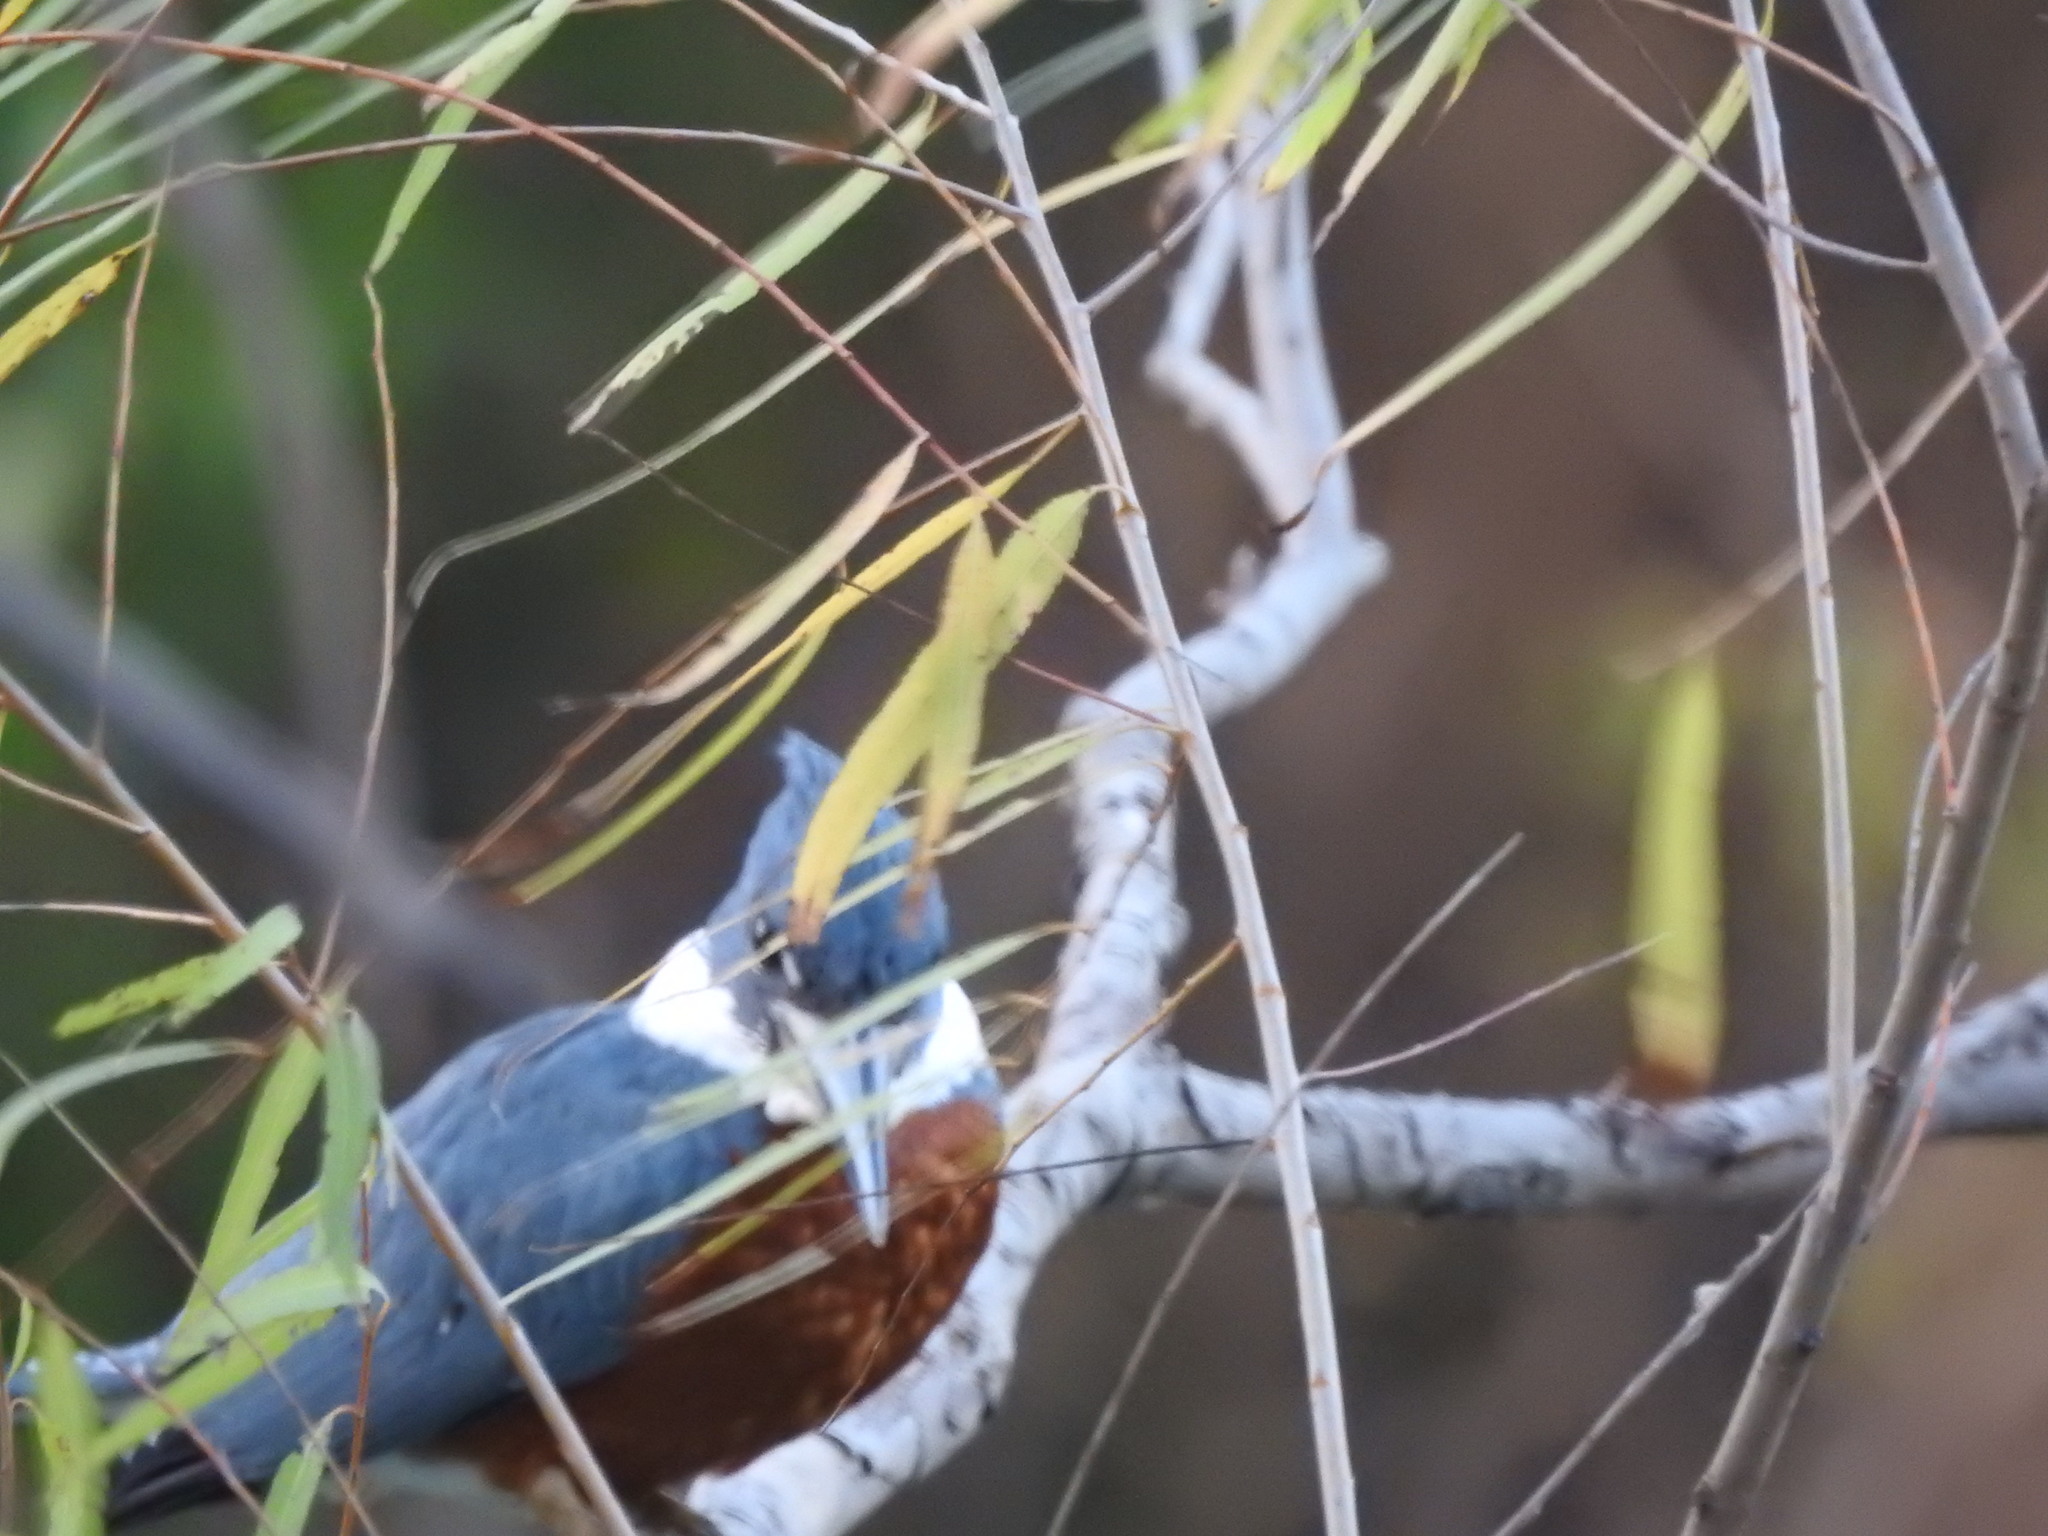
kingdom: Animalia
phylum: Chordata
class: Aves
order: Coraciiformes
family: Alcedinidae
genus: Megaceryle
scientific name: Megaceryle torquata
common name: Ringed kingfisher
